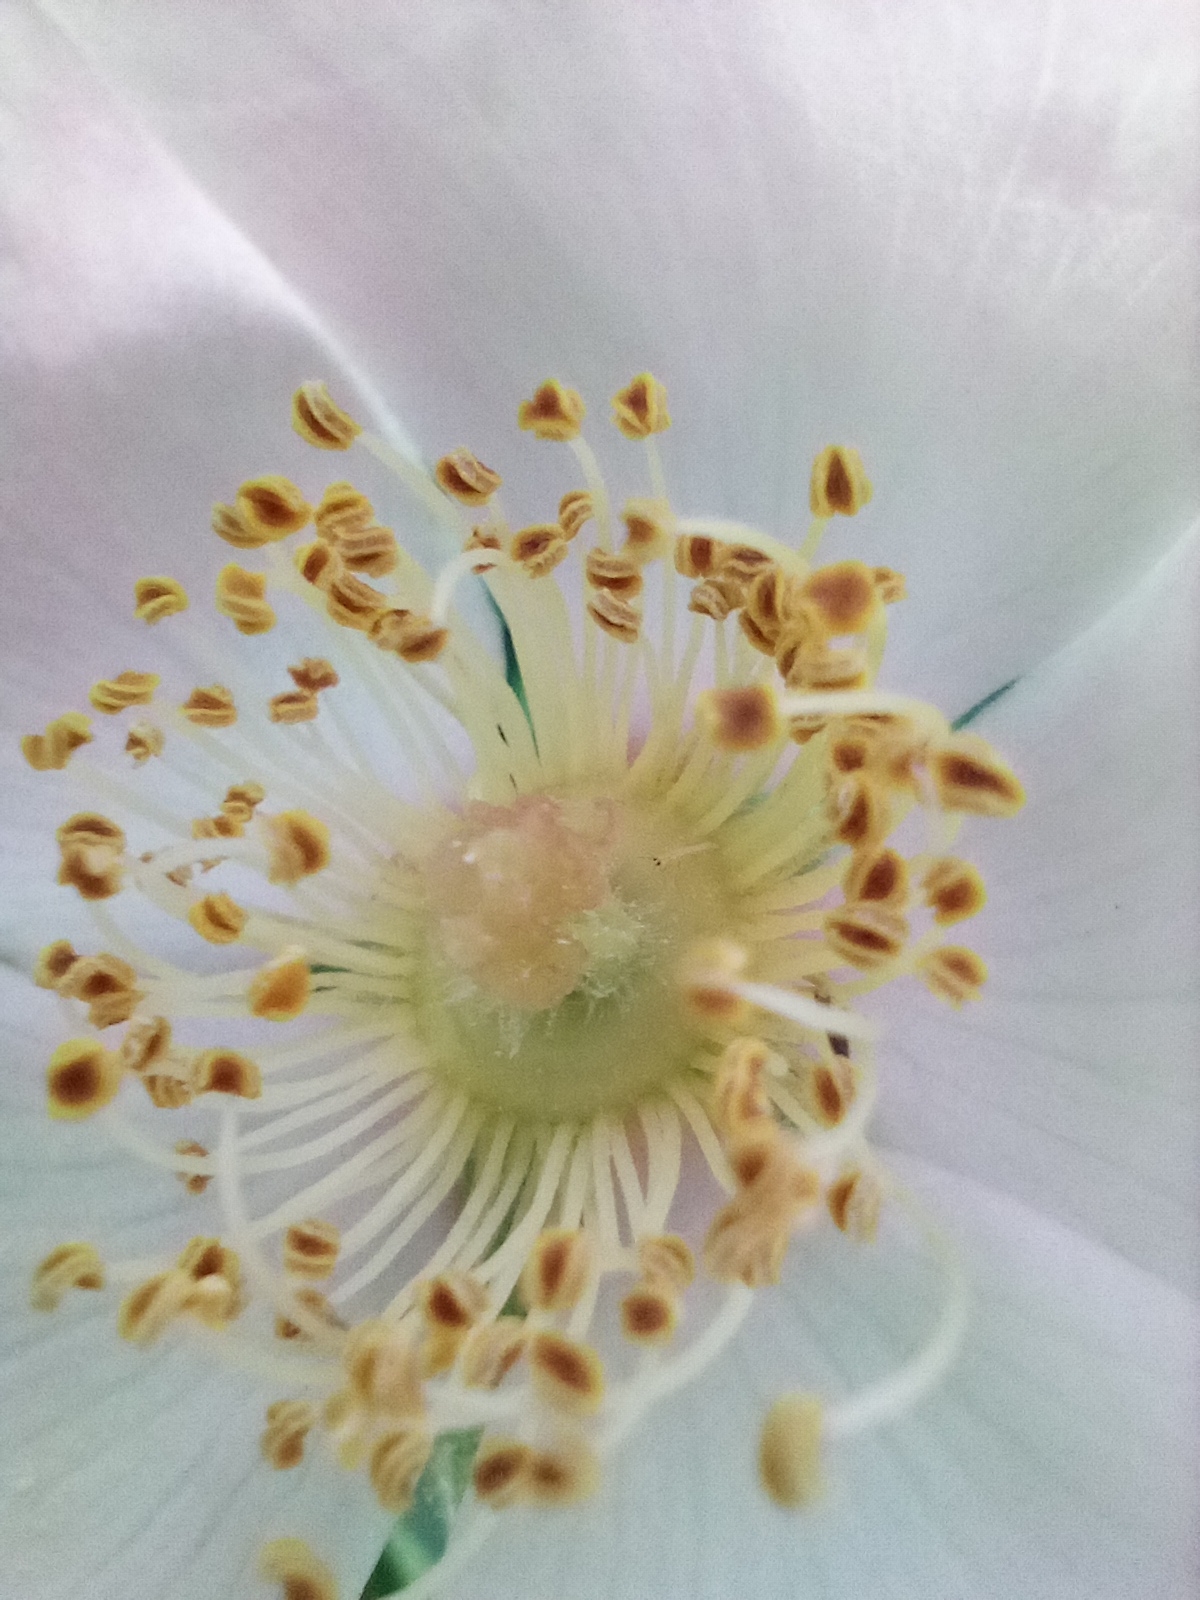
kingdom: Plantae
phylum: Tracheophyta
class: Magnoliopsida
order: Rosales
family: Rosaceae
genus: Rosa
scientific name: Rosa canina
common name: Dog rose
